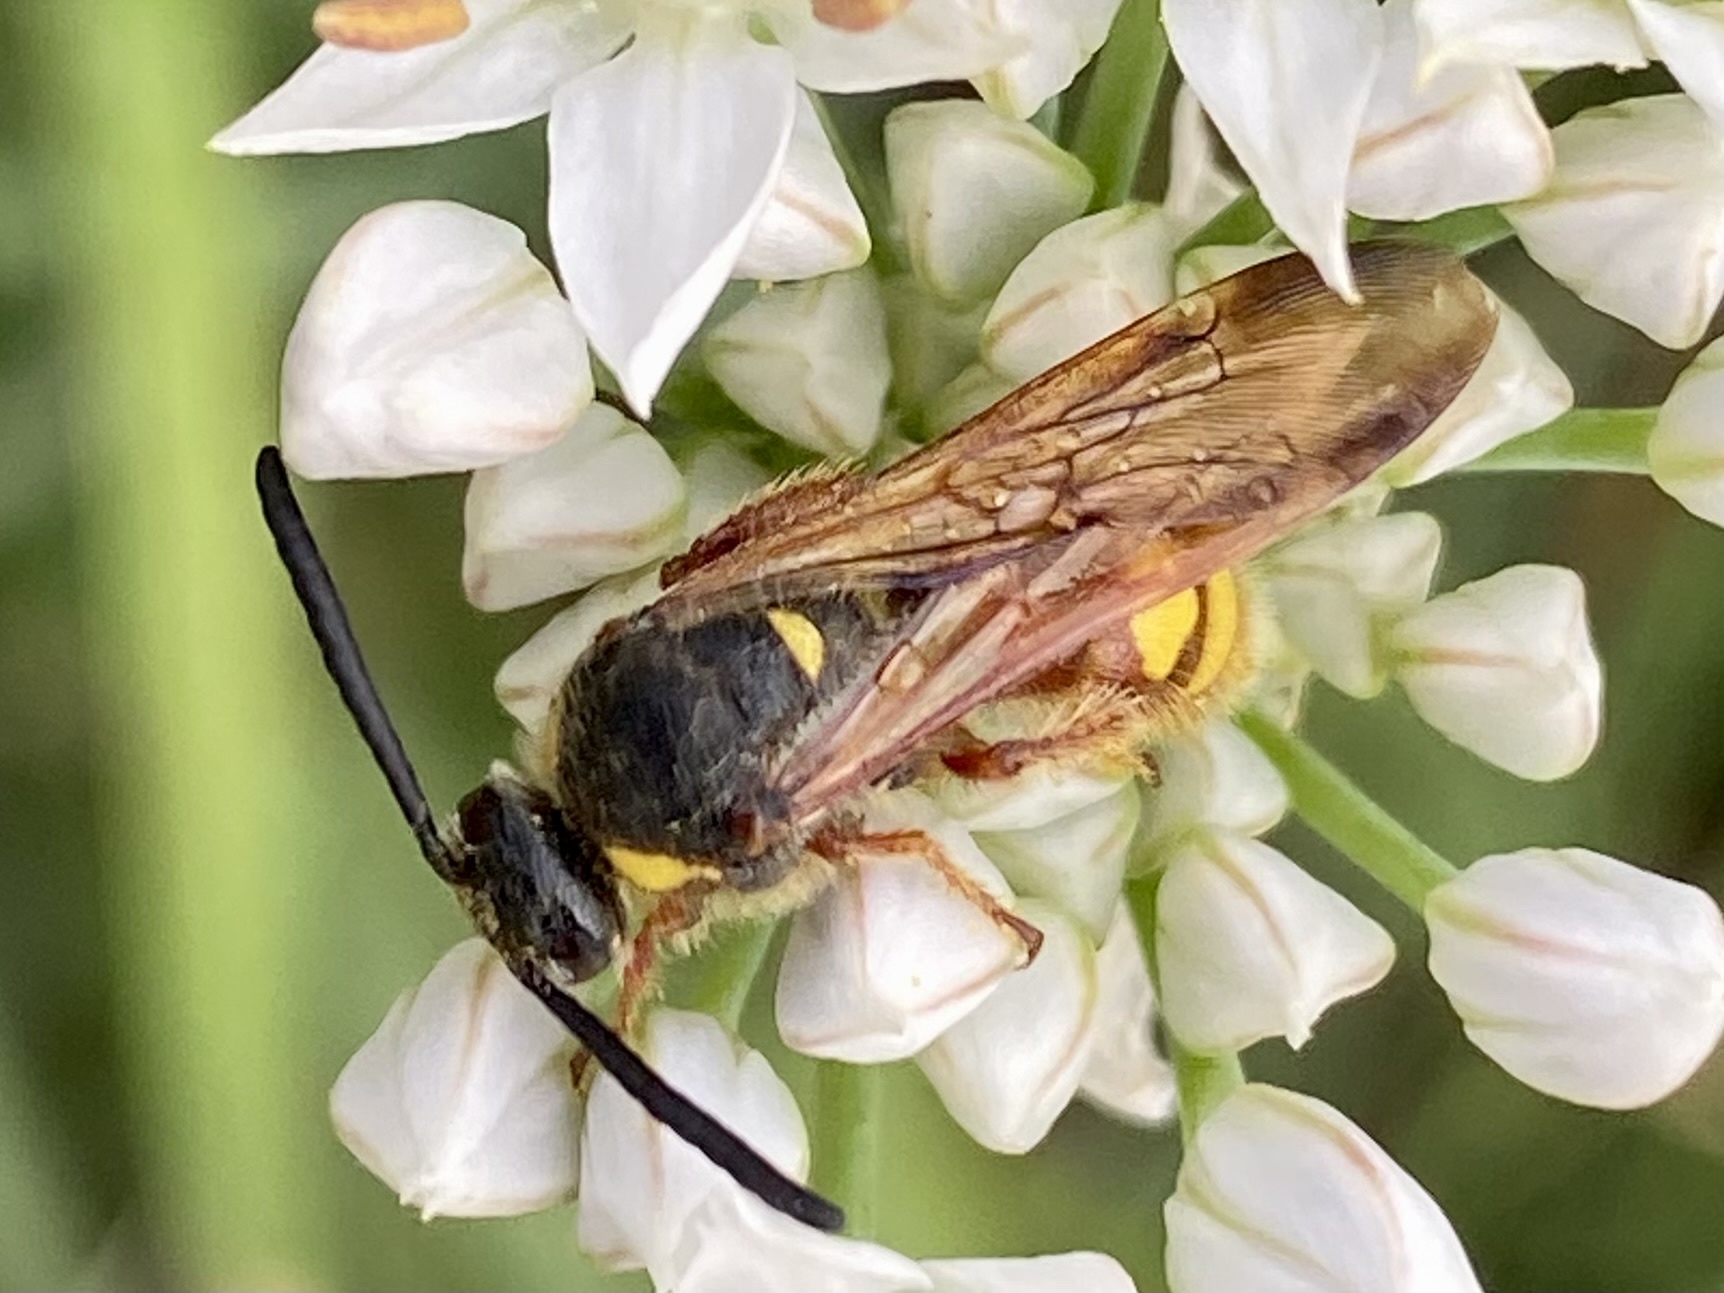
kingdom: Animalia
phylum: Arthropoda
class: Insecta
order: Hymenoptera
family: Scoliidae
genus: Scolia
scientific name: Scolia nobilitata
